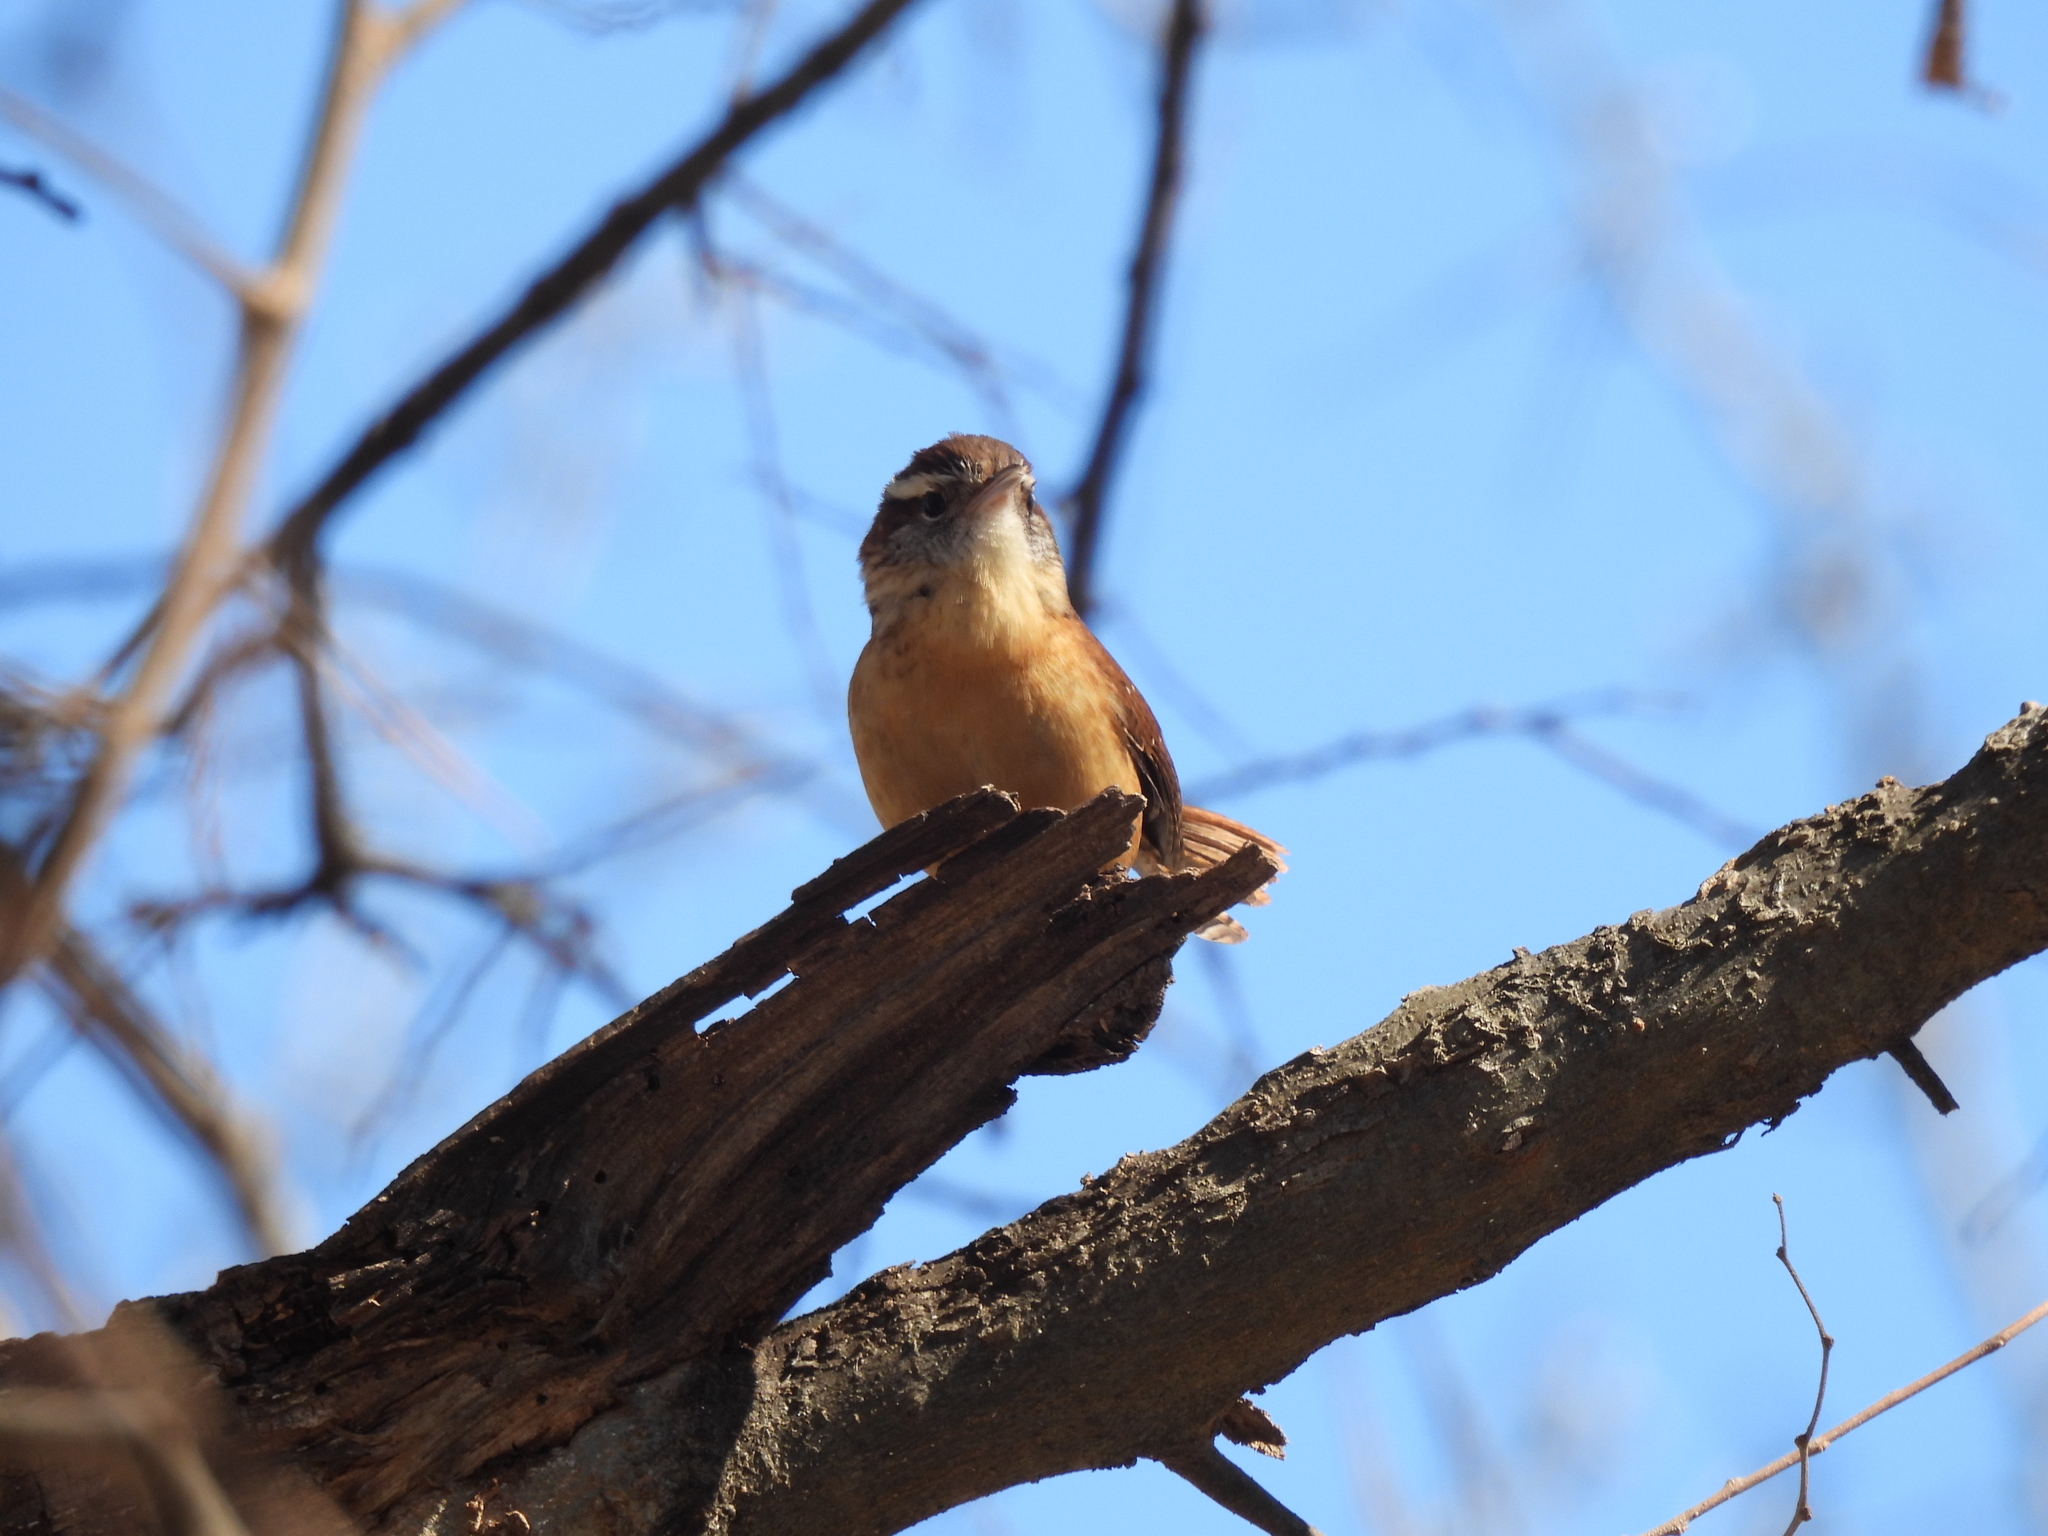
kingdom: Animalia
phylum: Chordata
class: Aves
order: Passeriformes
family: Troglodytidae
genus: Thryothorus
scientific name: Thryothorus ludovicianus
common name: Carolina wren
